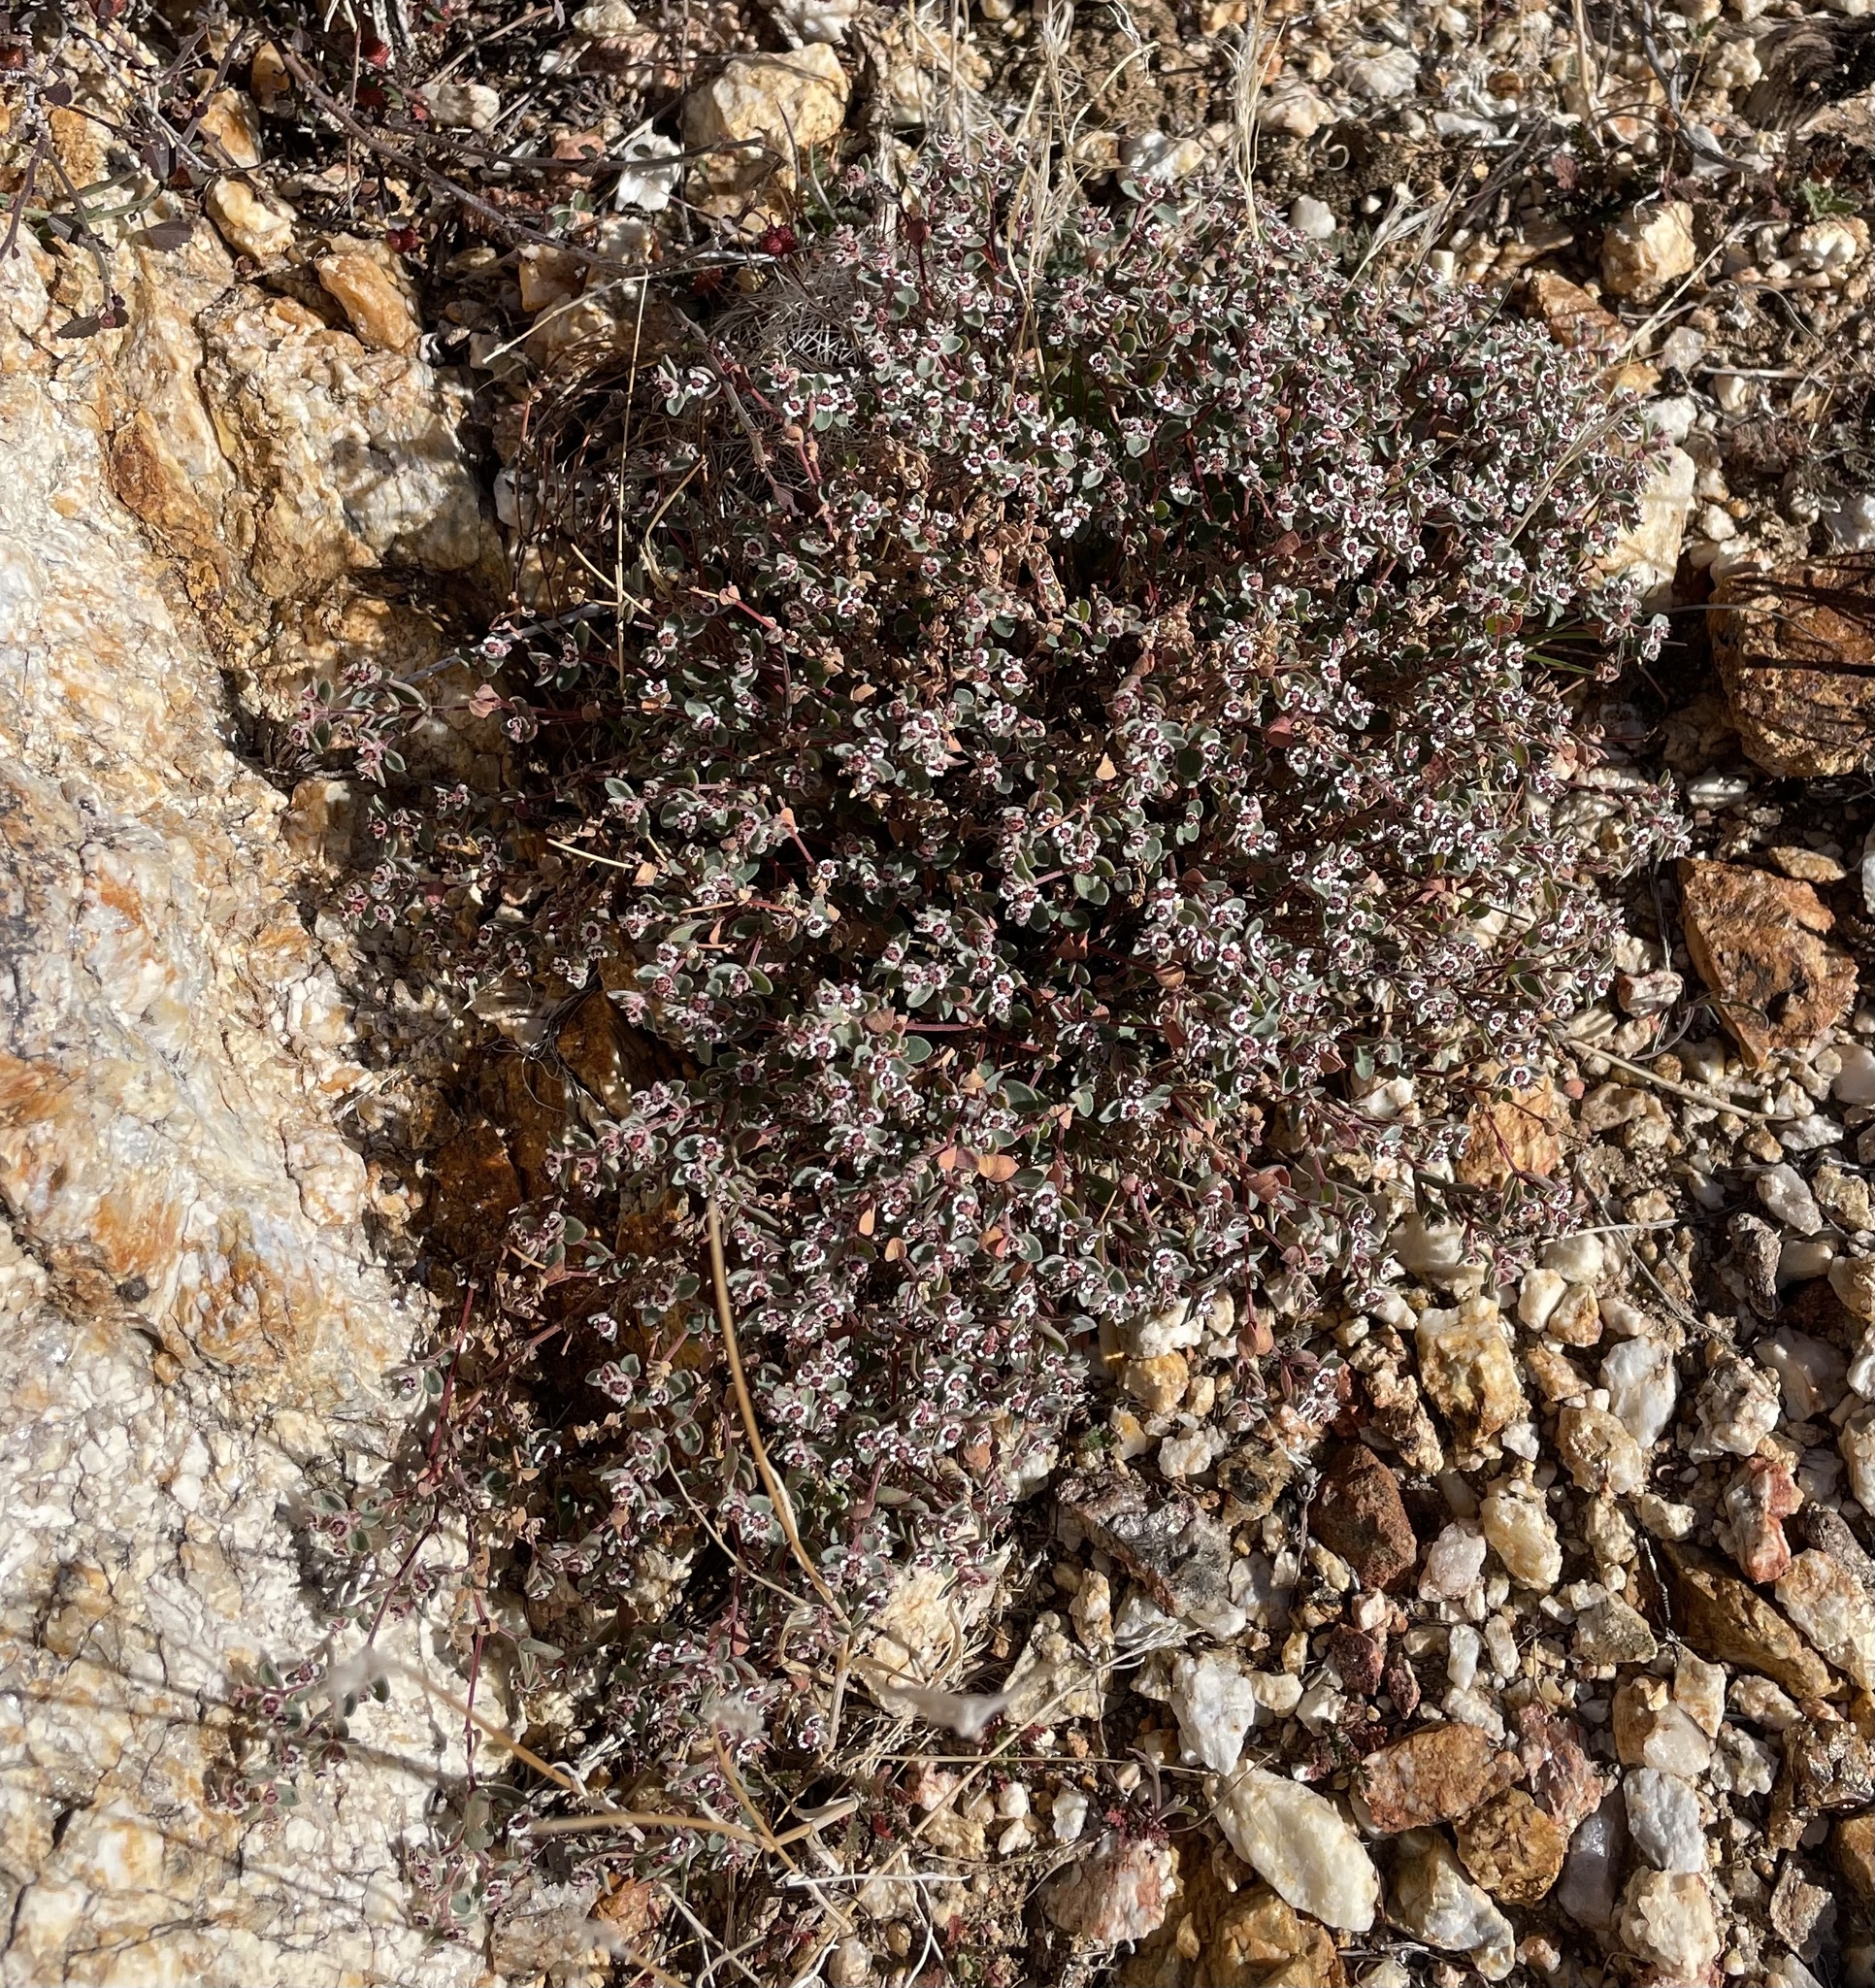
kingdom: Plantae
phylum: Tracheophyta
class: Magnoliopsida
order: Malpighiales
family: Euphorbiaceae
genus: Euphorbia
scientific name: Euphorbia melanadenia
